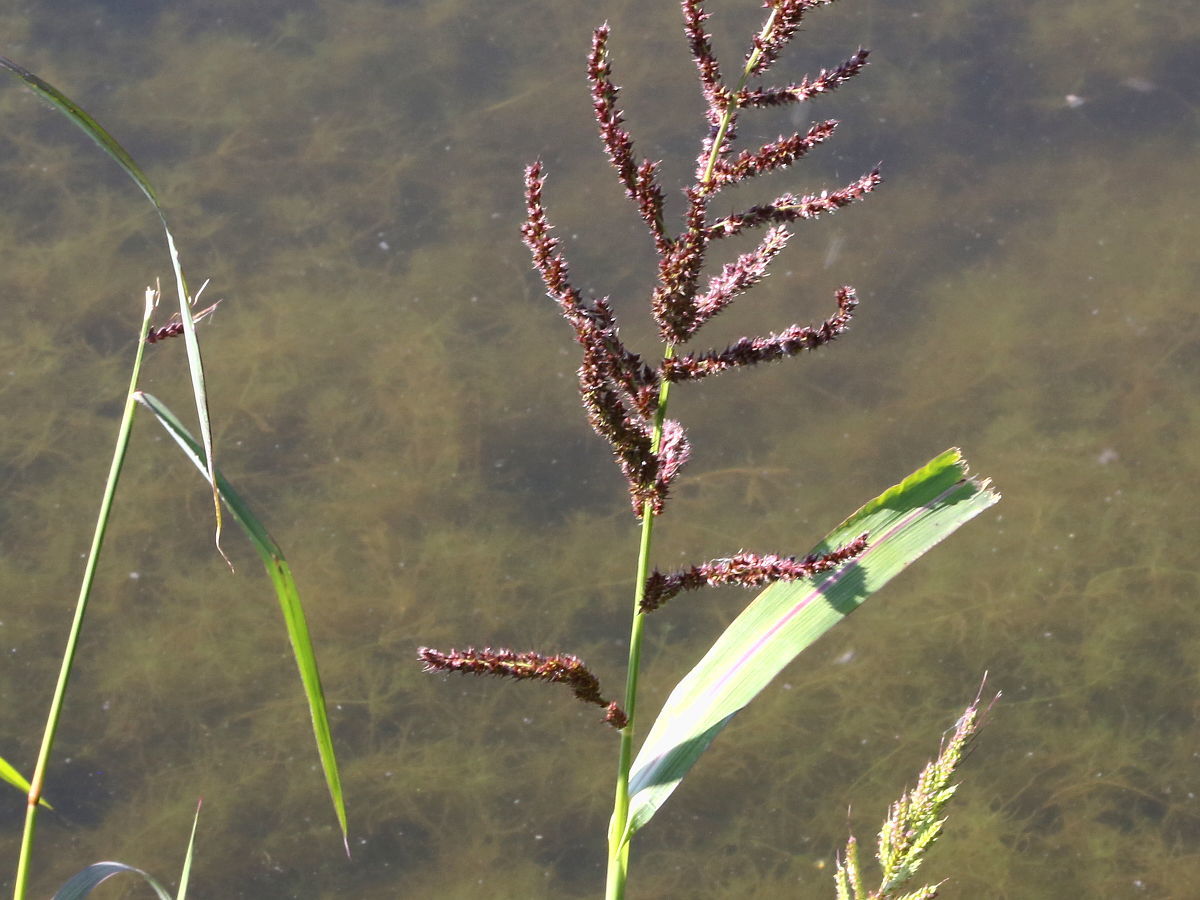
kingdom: Plantae
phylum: Tracheophyta
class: Liliopsida
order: Poales
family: Poaceae
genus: Echinochloa
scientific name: Echinochloa crus-galli
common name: Cockspur
